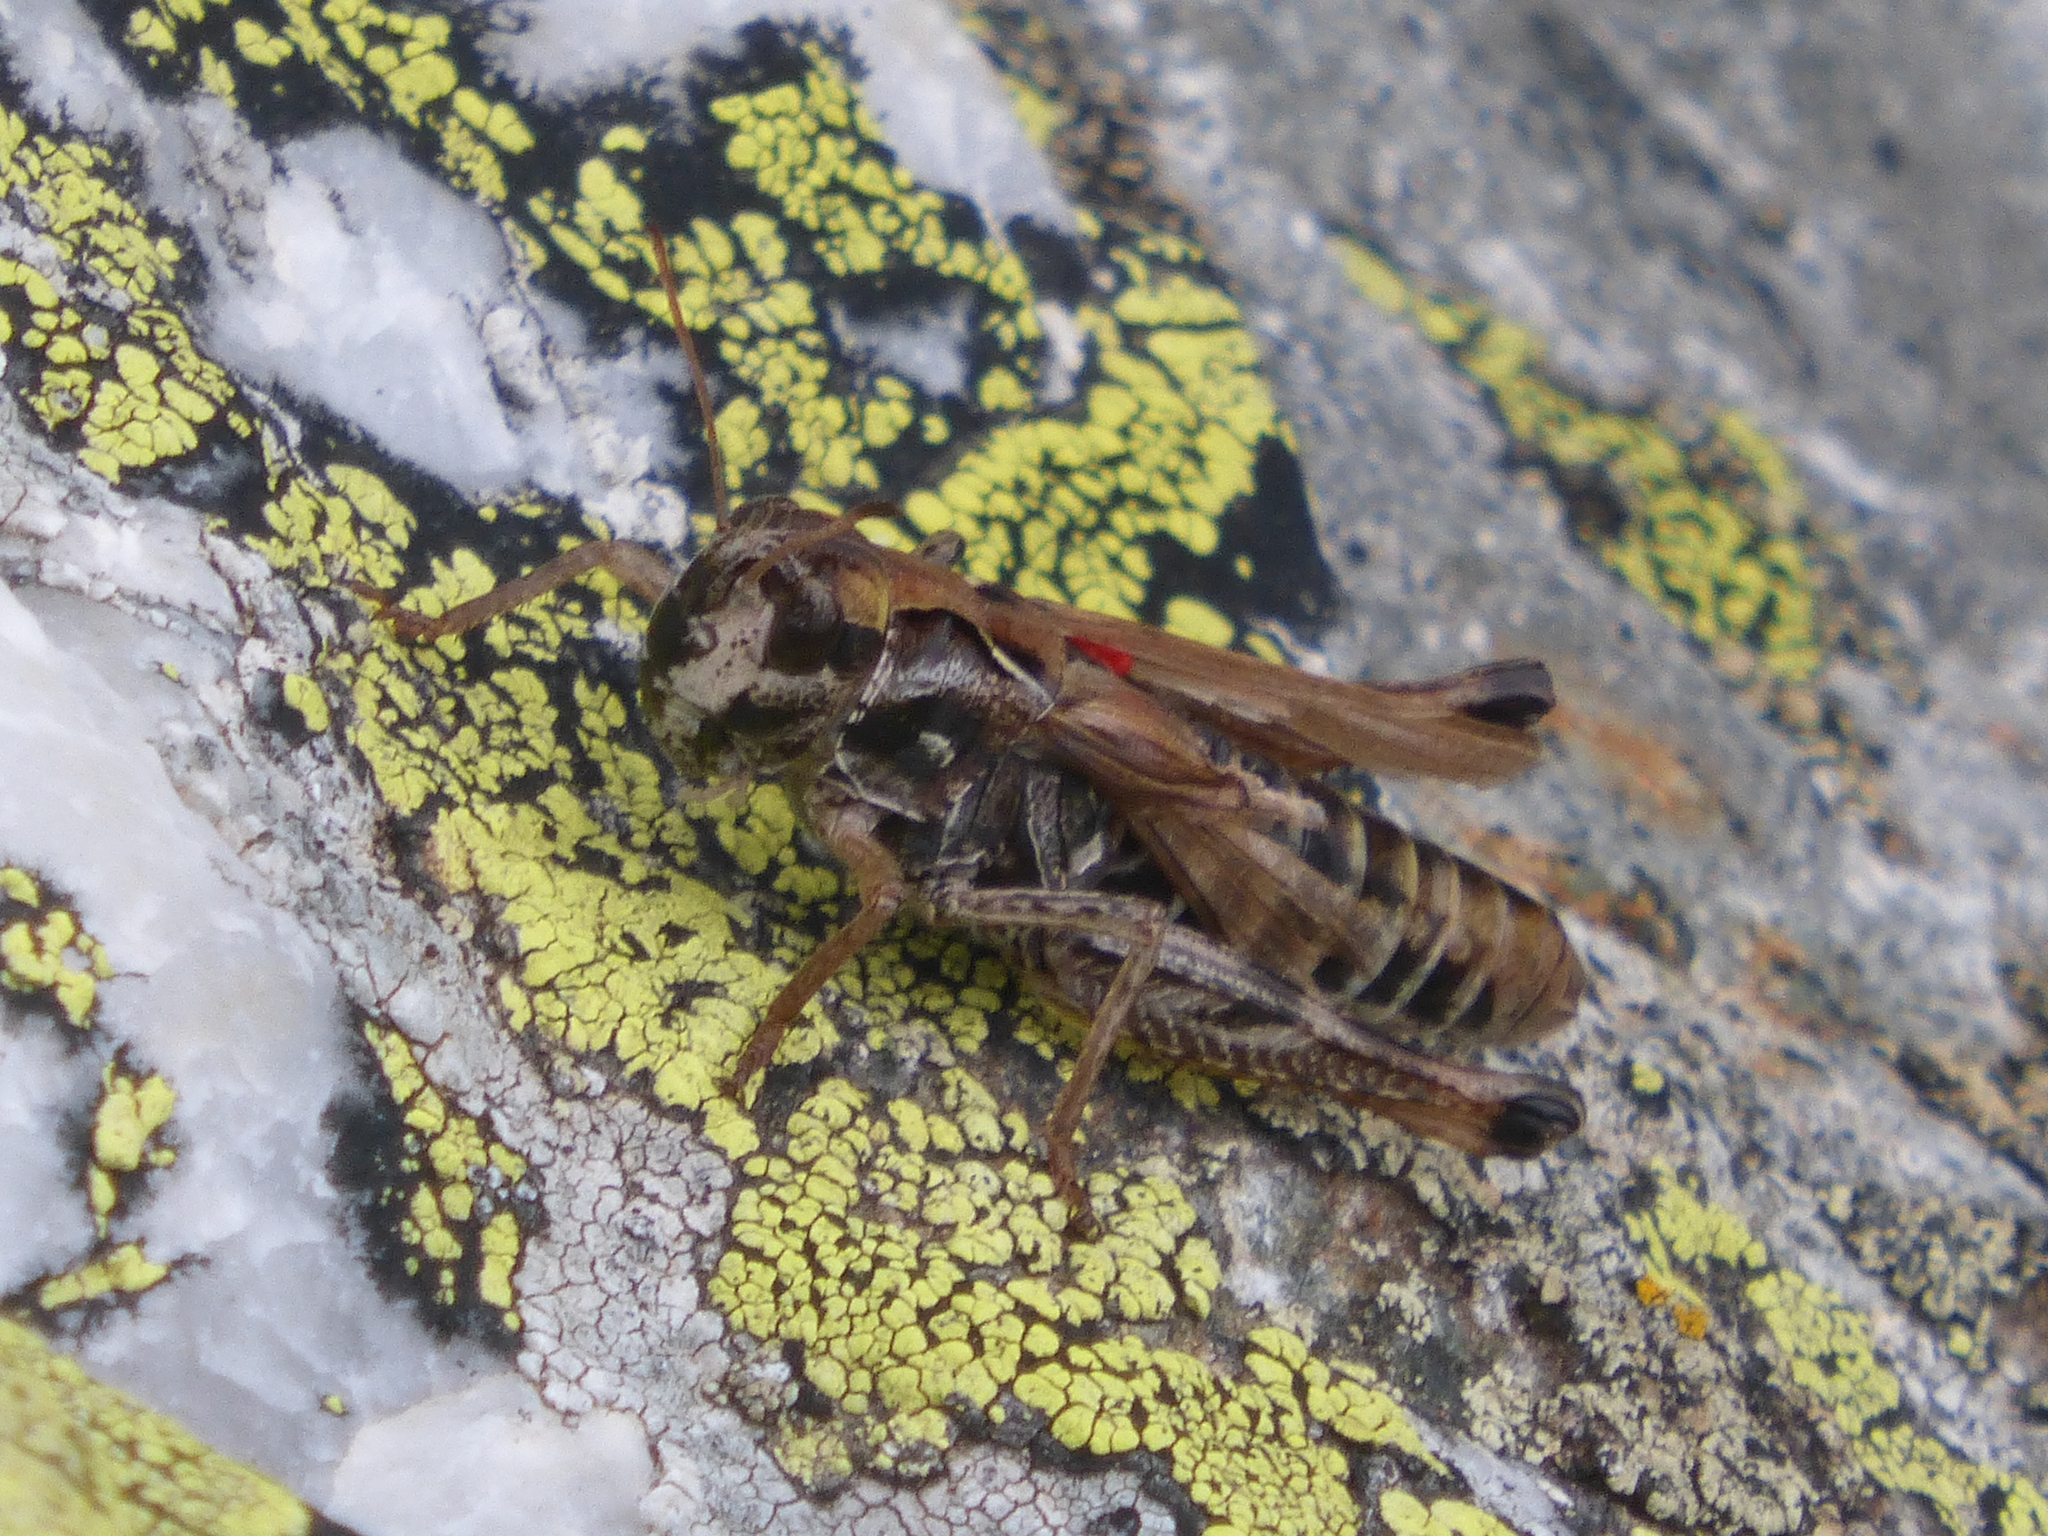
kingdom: Animalia
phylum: Arthropoda
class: Insecta
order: Orthoptera
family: Acrididae
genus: Gomphocerus
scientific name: Gomphocerus sibiricus
